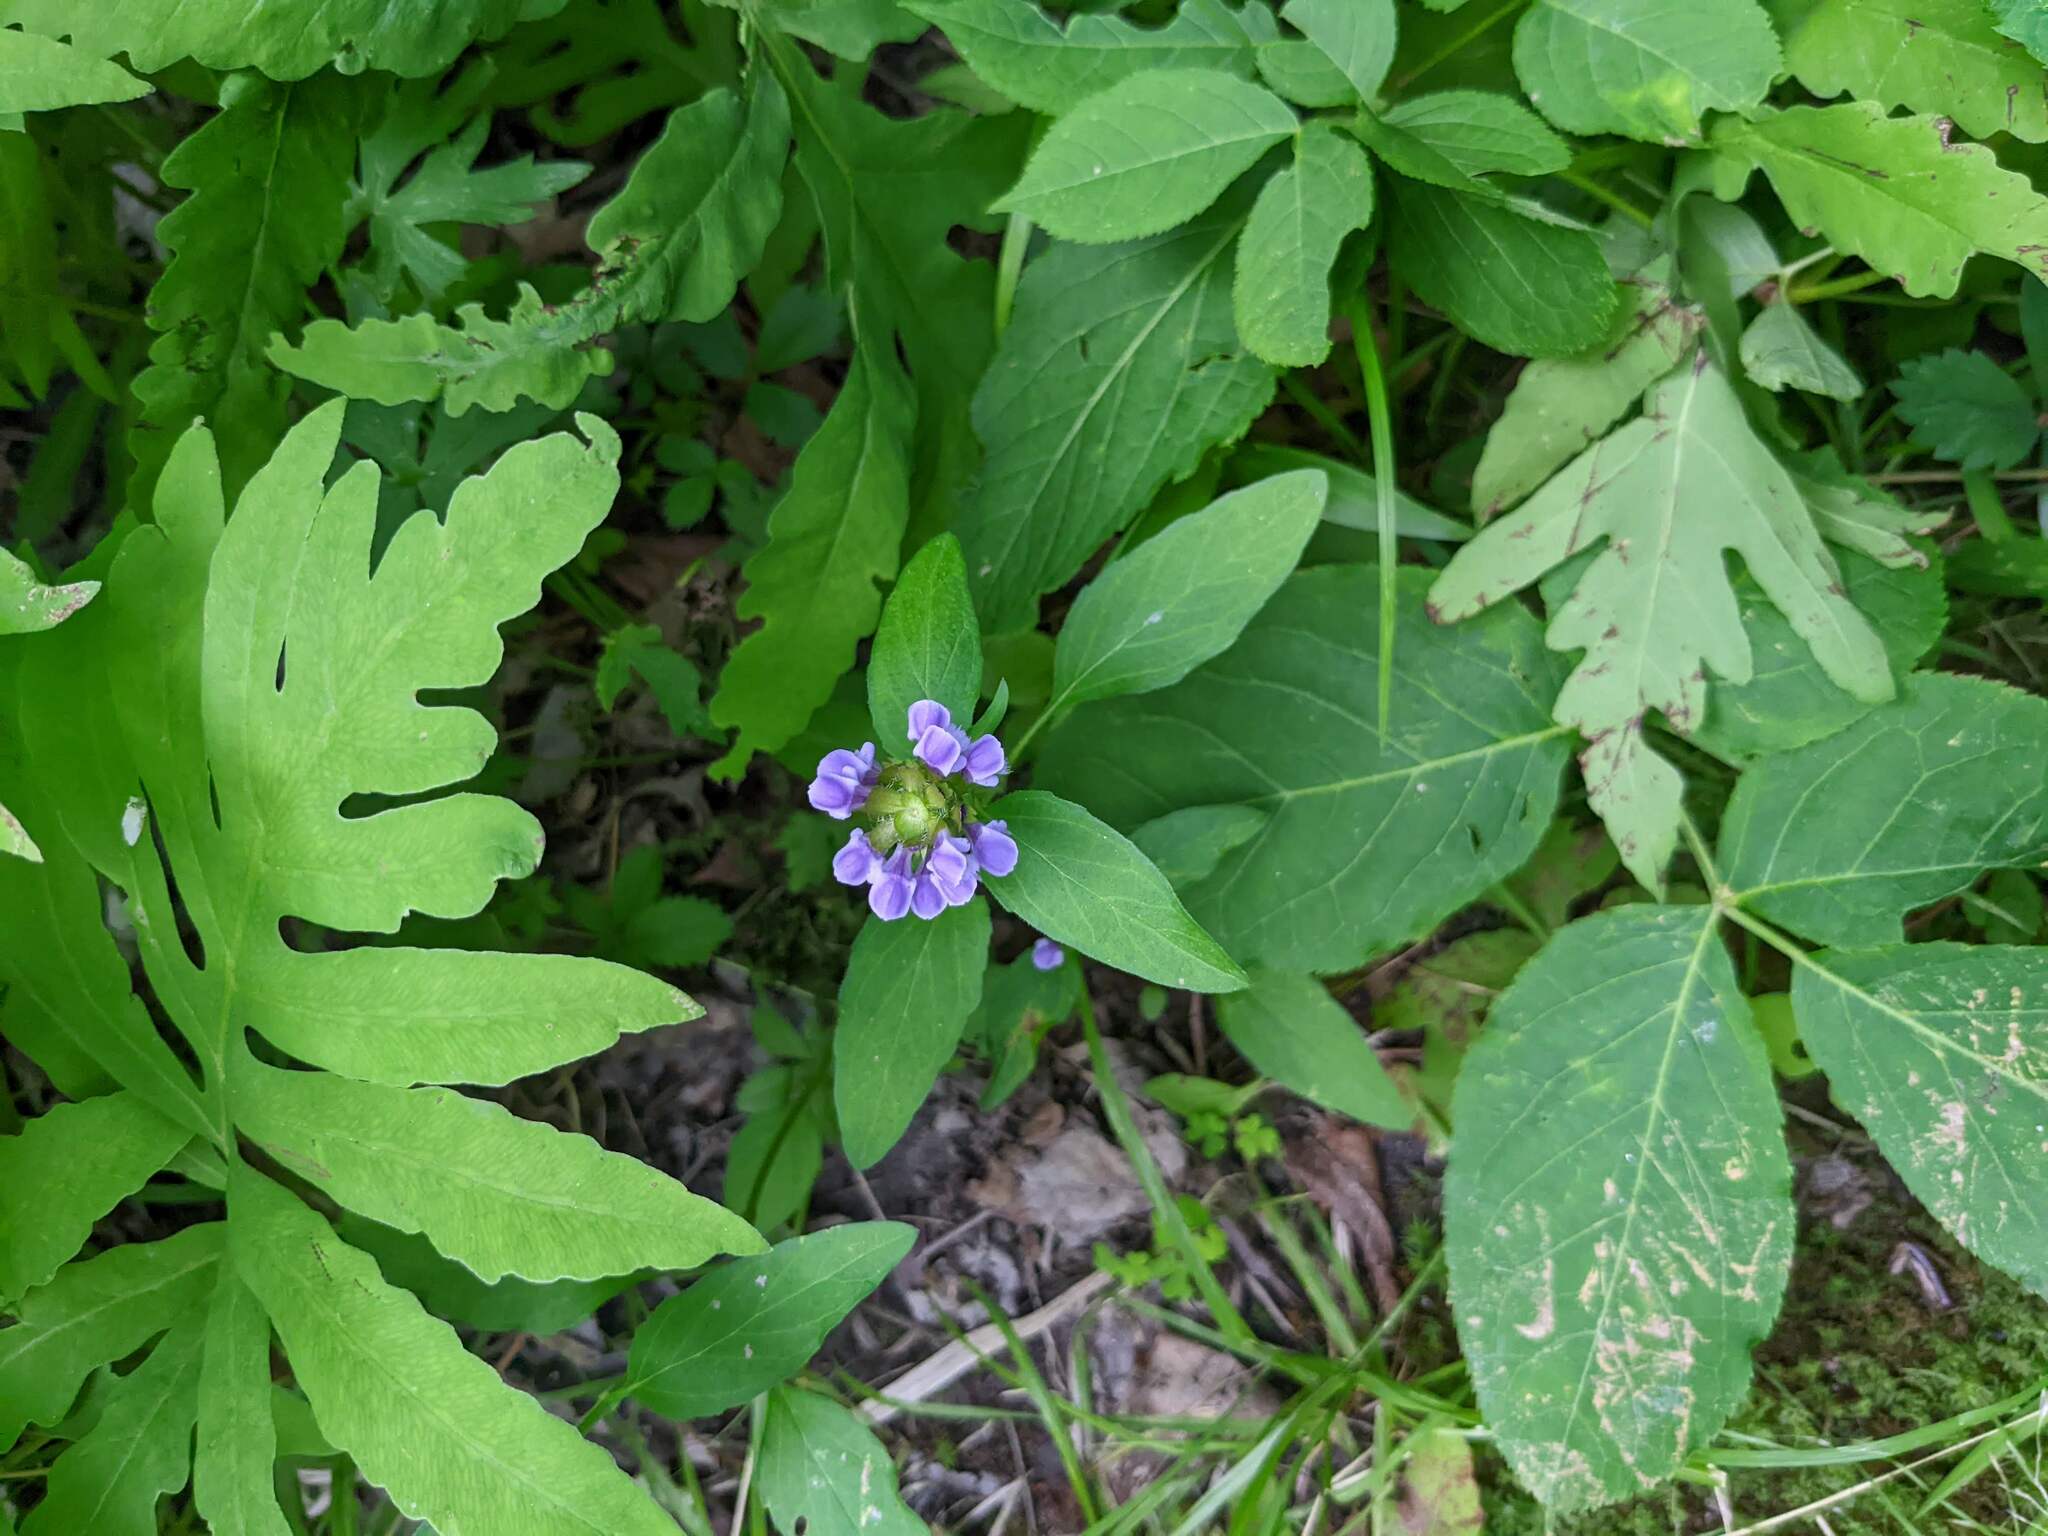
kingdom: Plantae
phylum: Tracheophyta
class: Magnoliopsida
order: Lamiales
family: Lamiaceae
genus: Prunella
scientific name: Prunella vulgaris
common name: Heal-all
